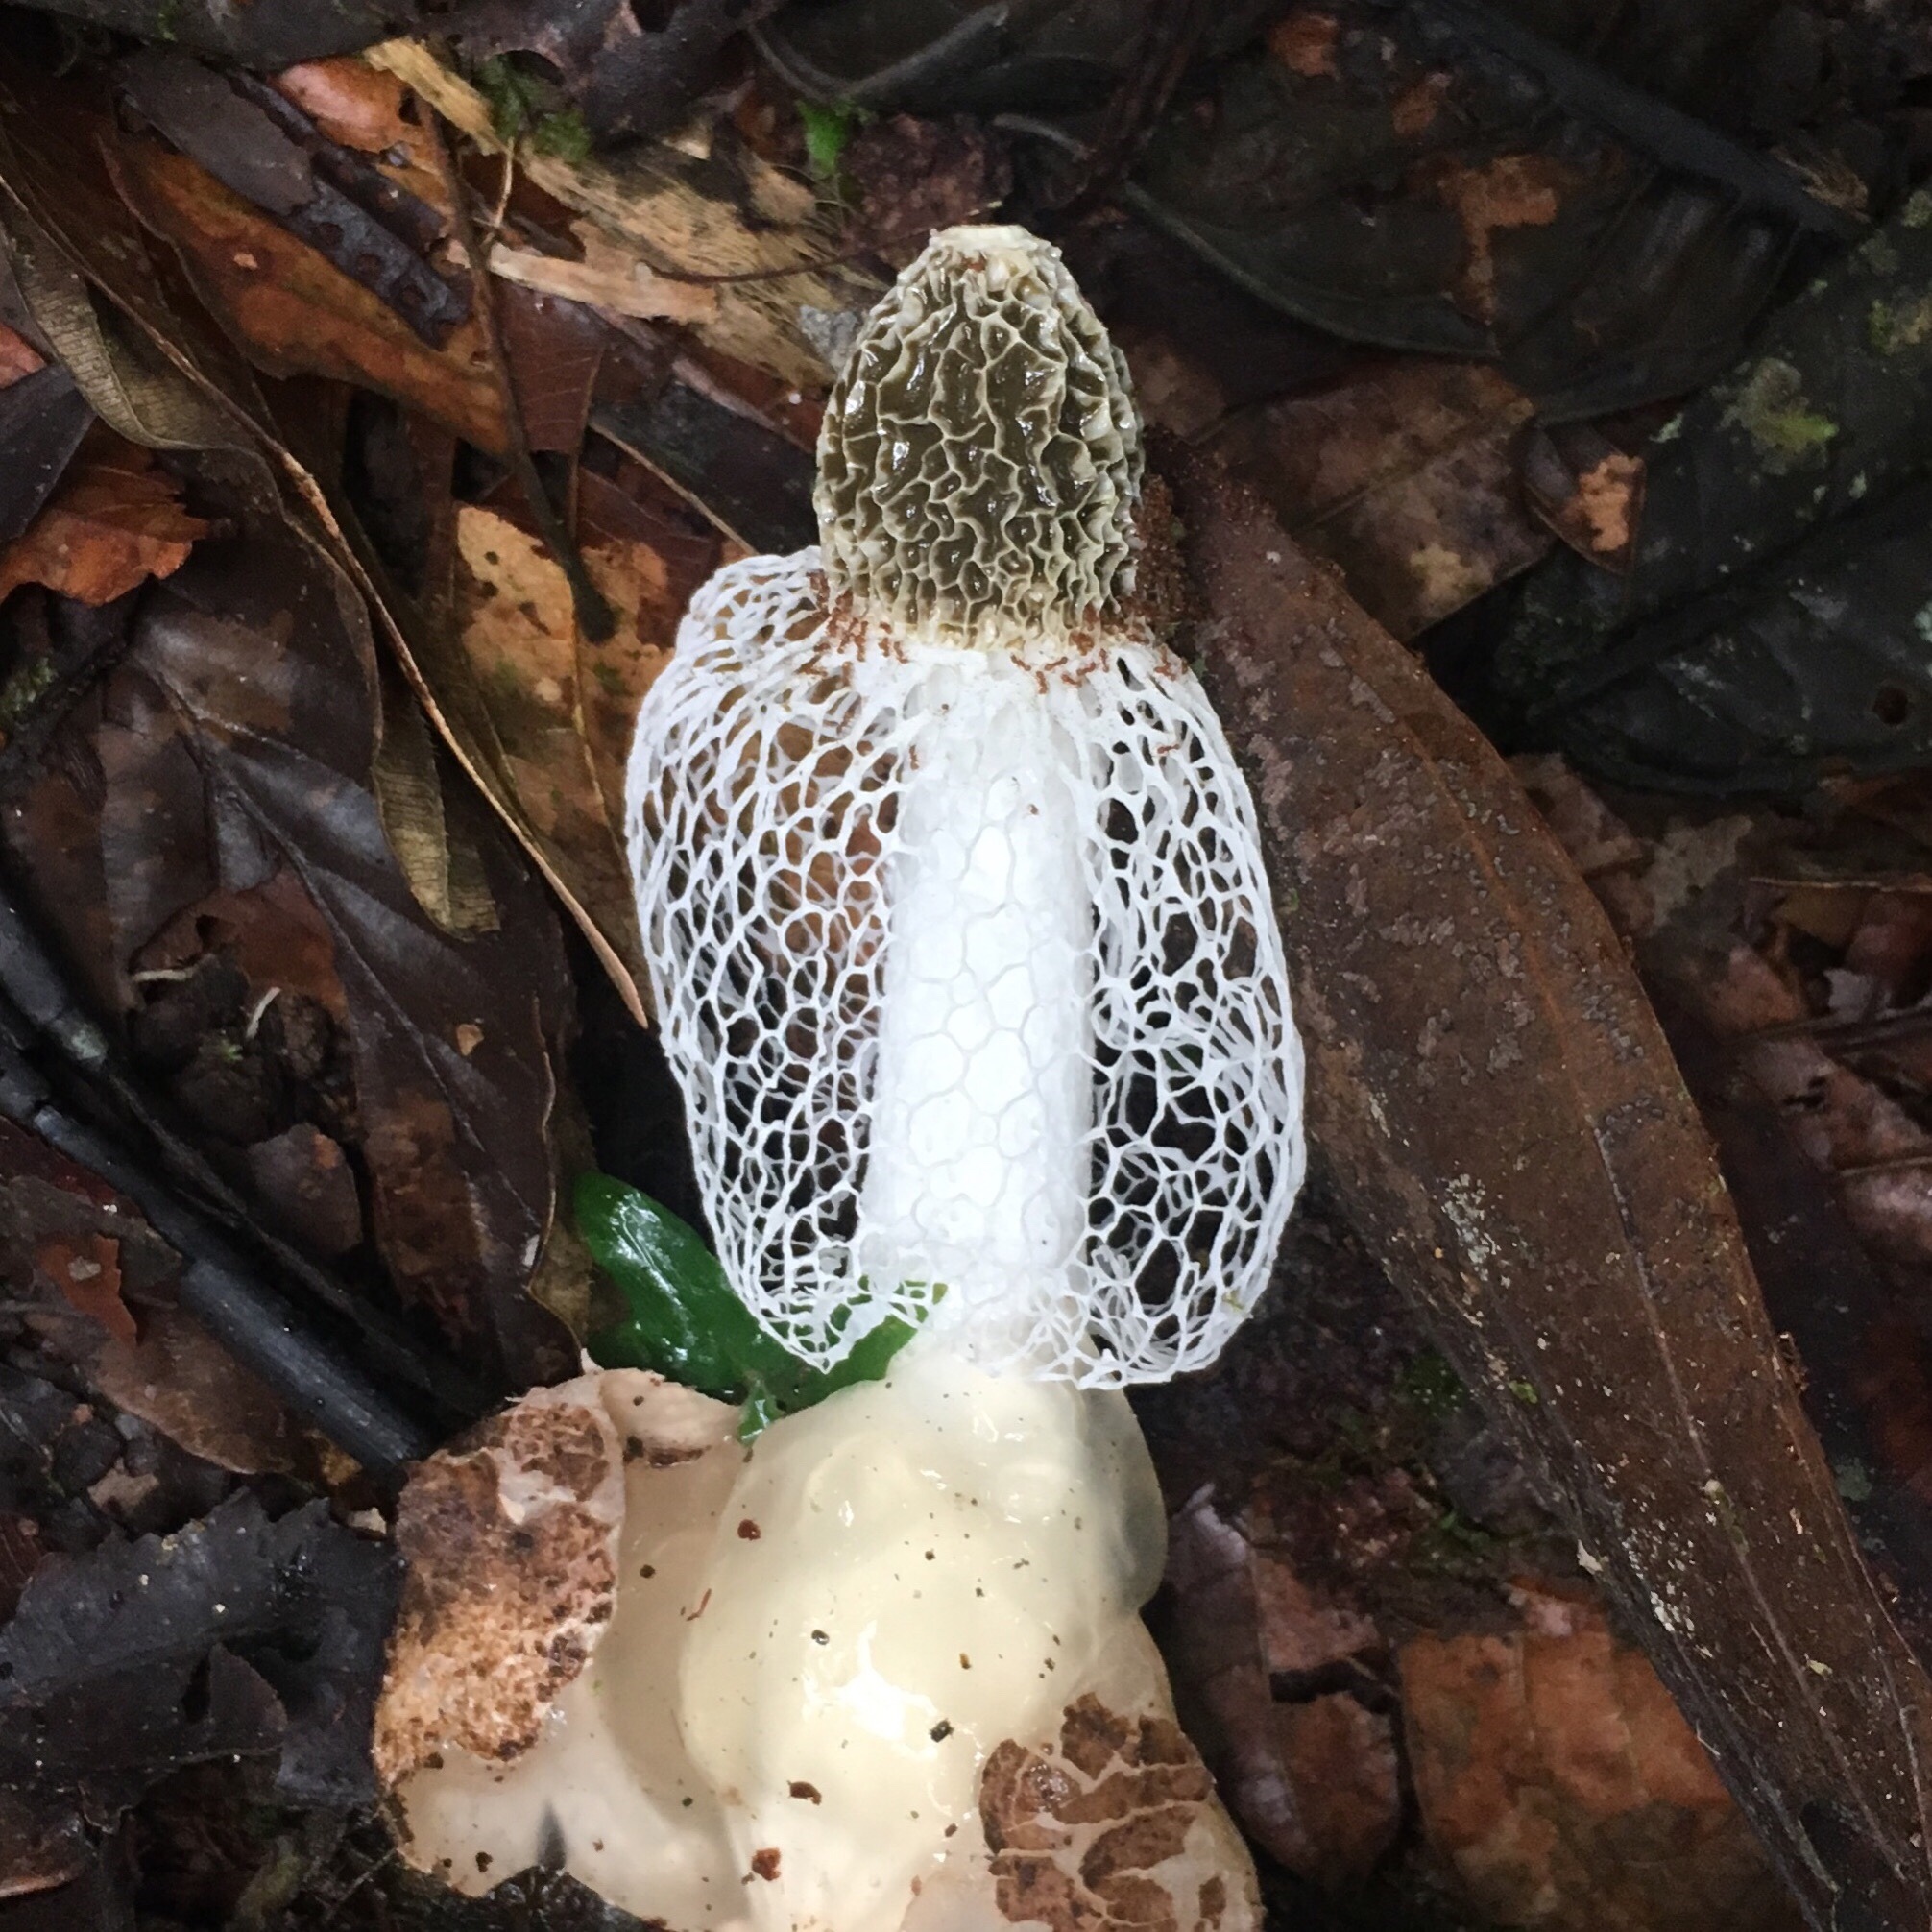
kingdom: Fungi
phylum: Basidiomycota
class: Agaricomycetes
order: Phallales
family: Phallaceae
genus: Phallus
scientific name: Phallus indusiatus
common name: Bridal veil stinkhorn
